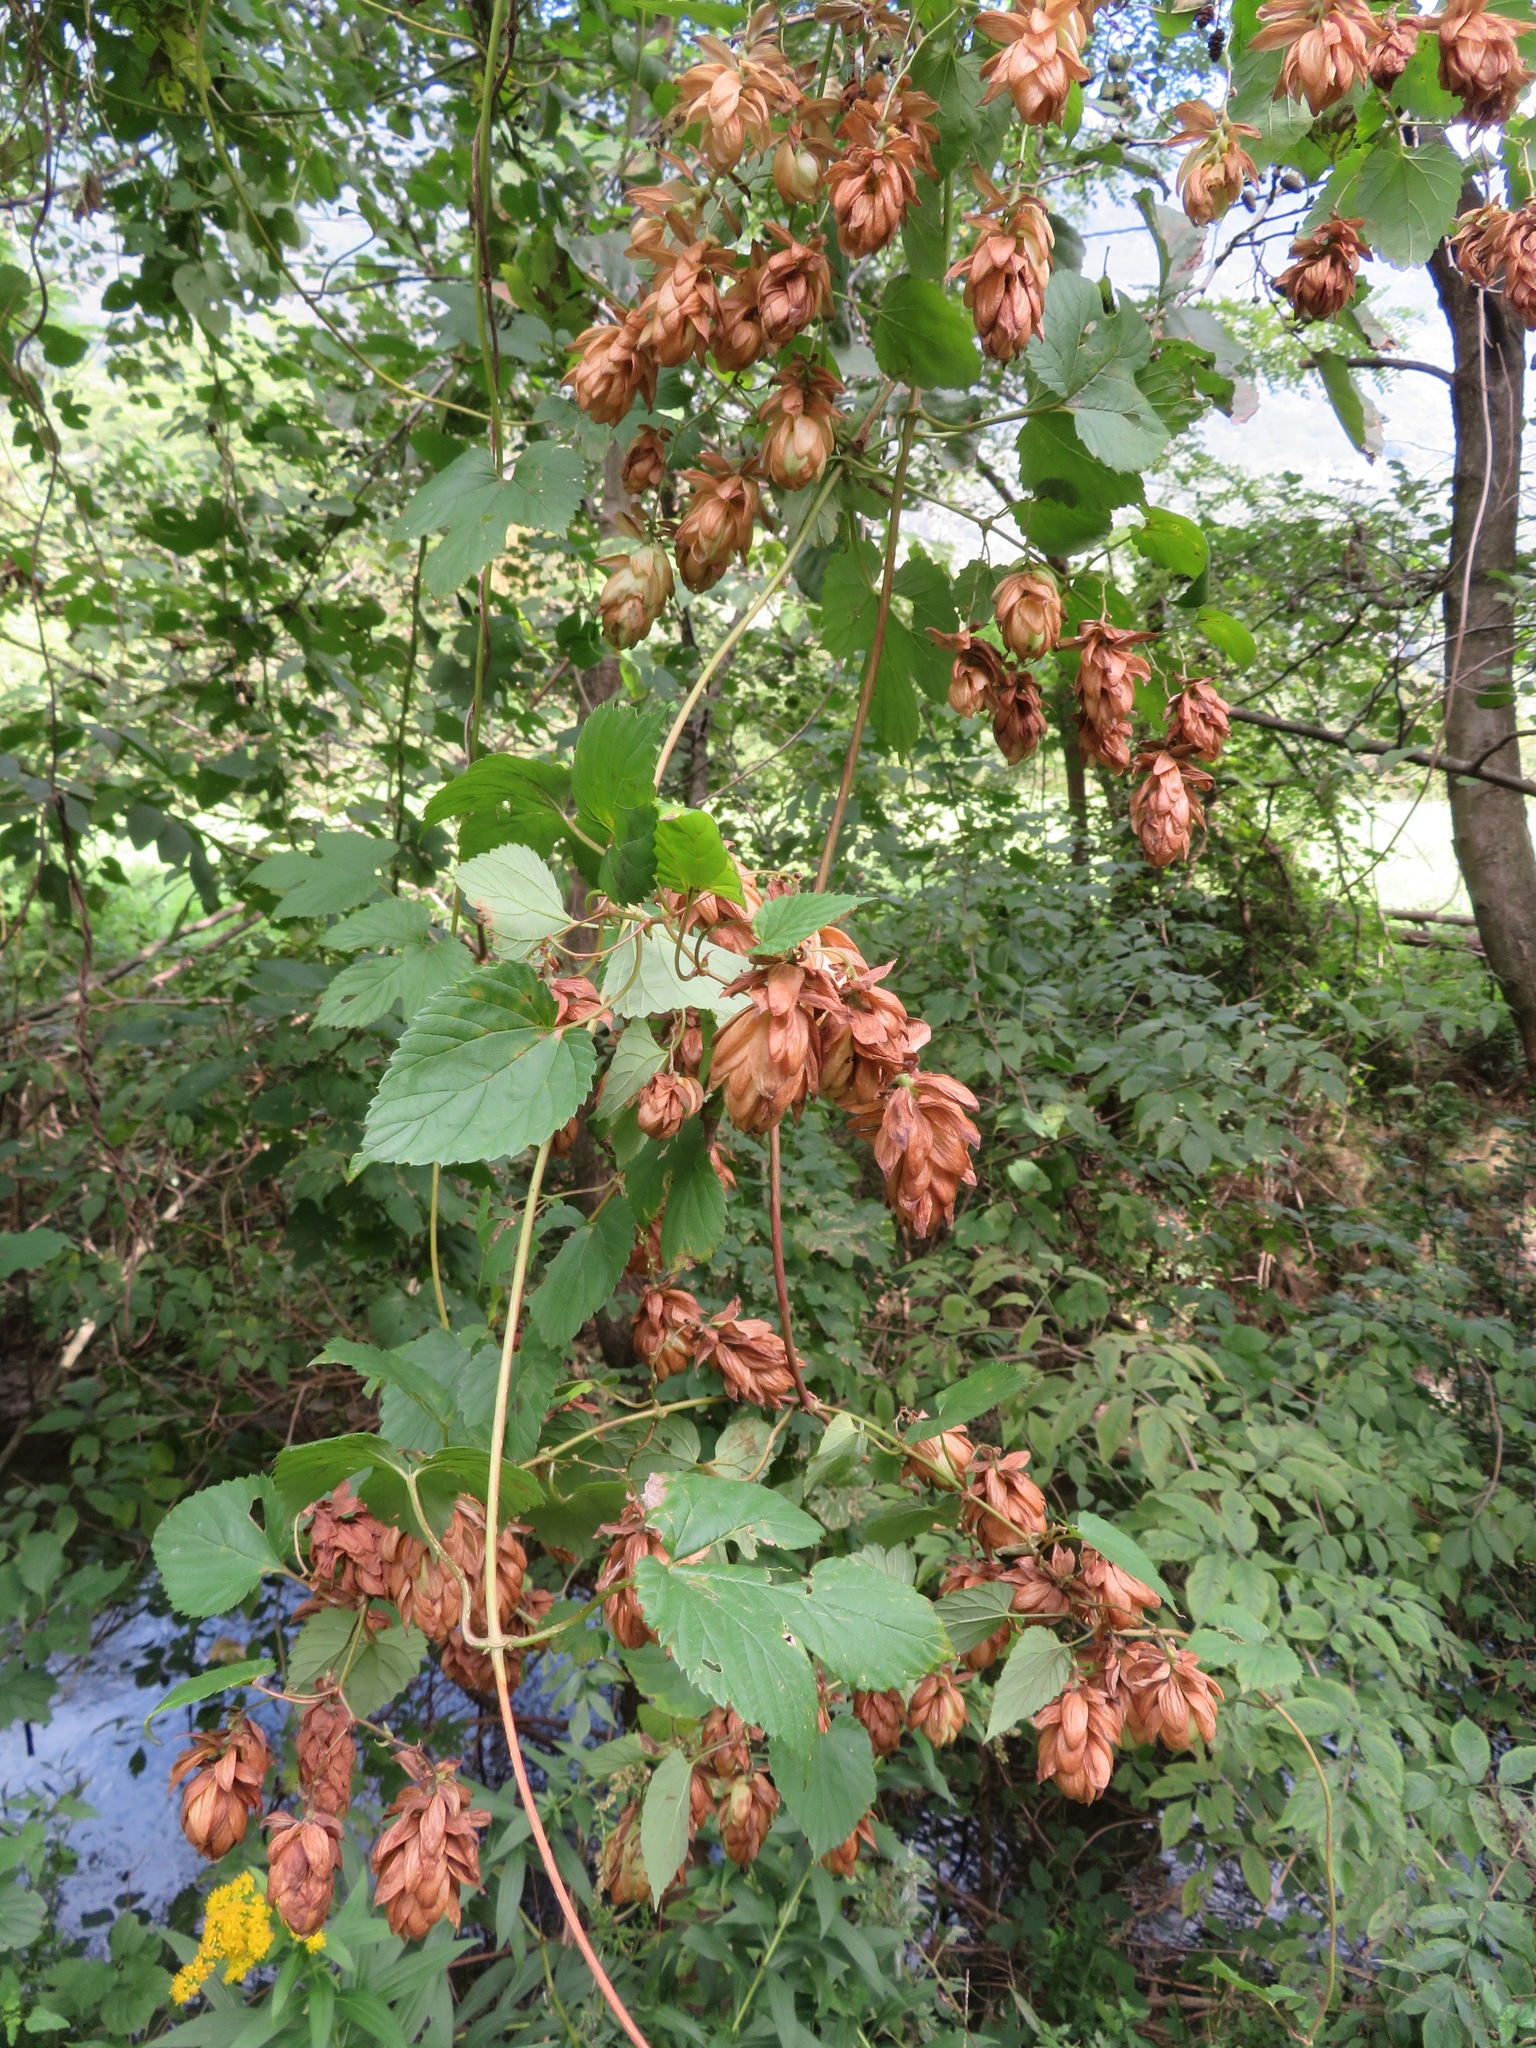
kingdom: Plantae
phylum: Tracheophyta
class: Magnoliopsida
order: Rosales
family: Cannabaceae
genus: Humulus
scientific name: Humulus lupulus
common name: Hop
